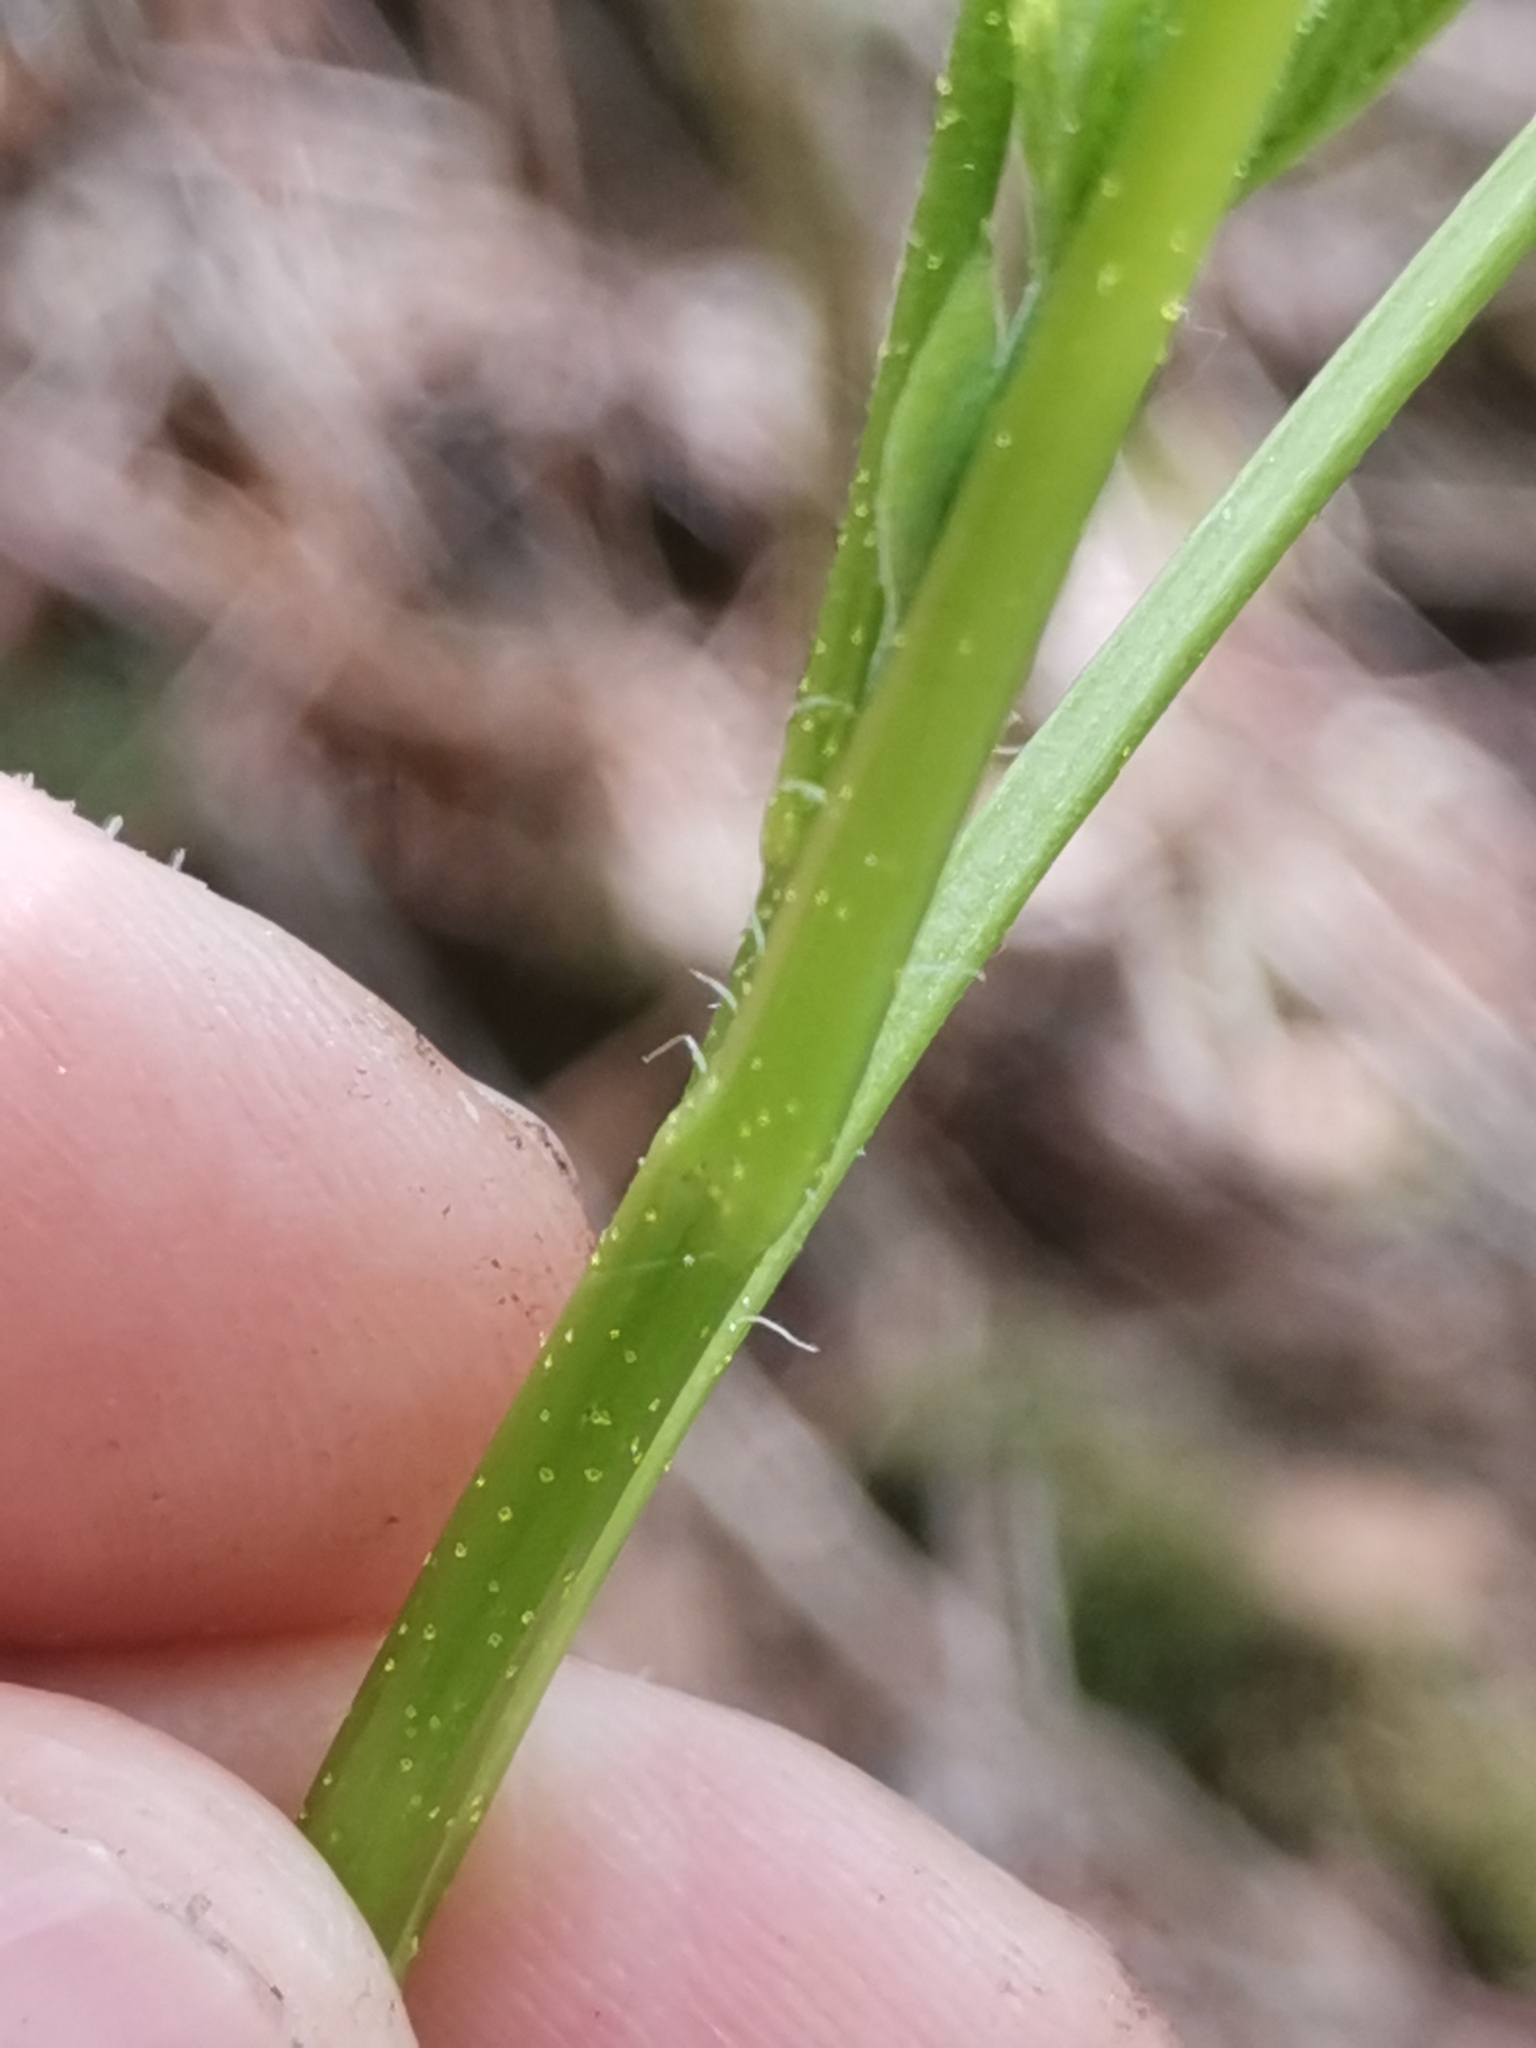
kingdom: Plantae
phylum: Tracheophyta
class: Magnoliopsida
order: Saxifragales
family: Grossulariaceae
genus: Ribes
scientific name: Ribes nigrum
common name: Black currant
